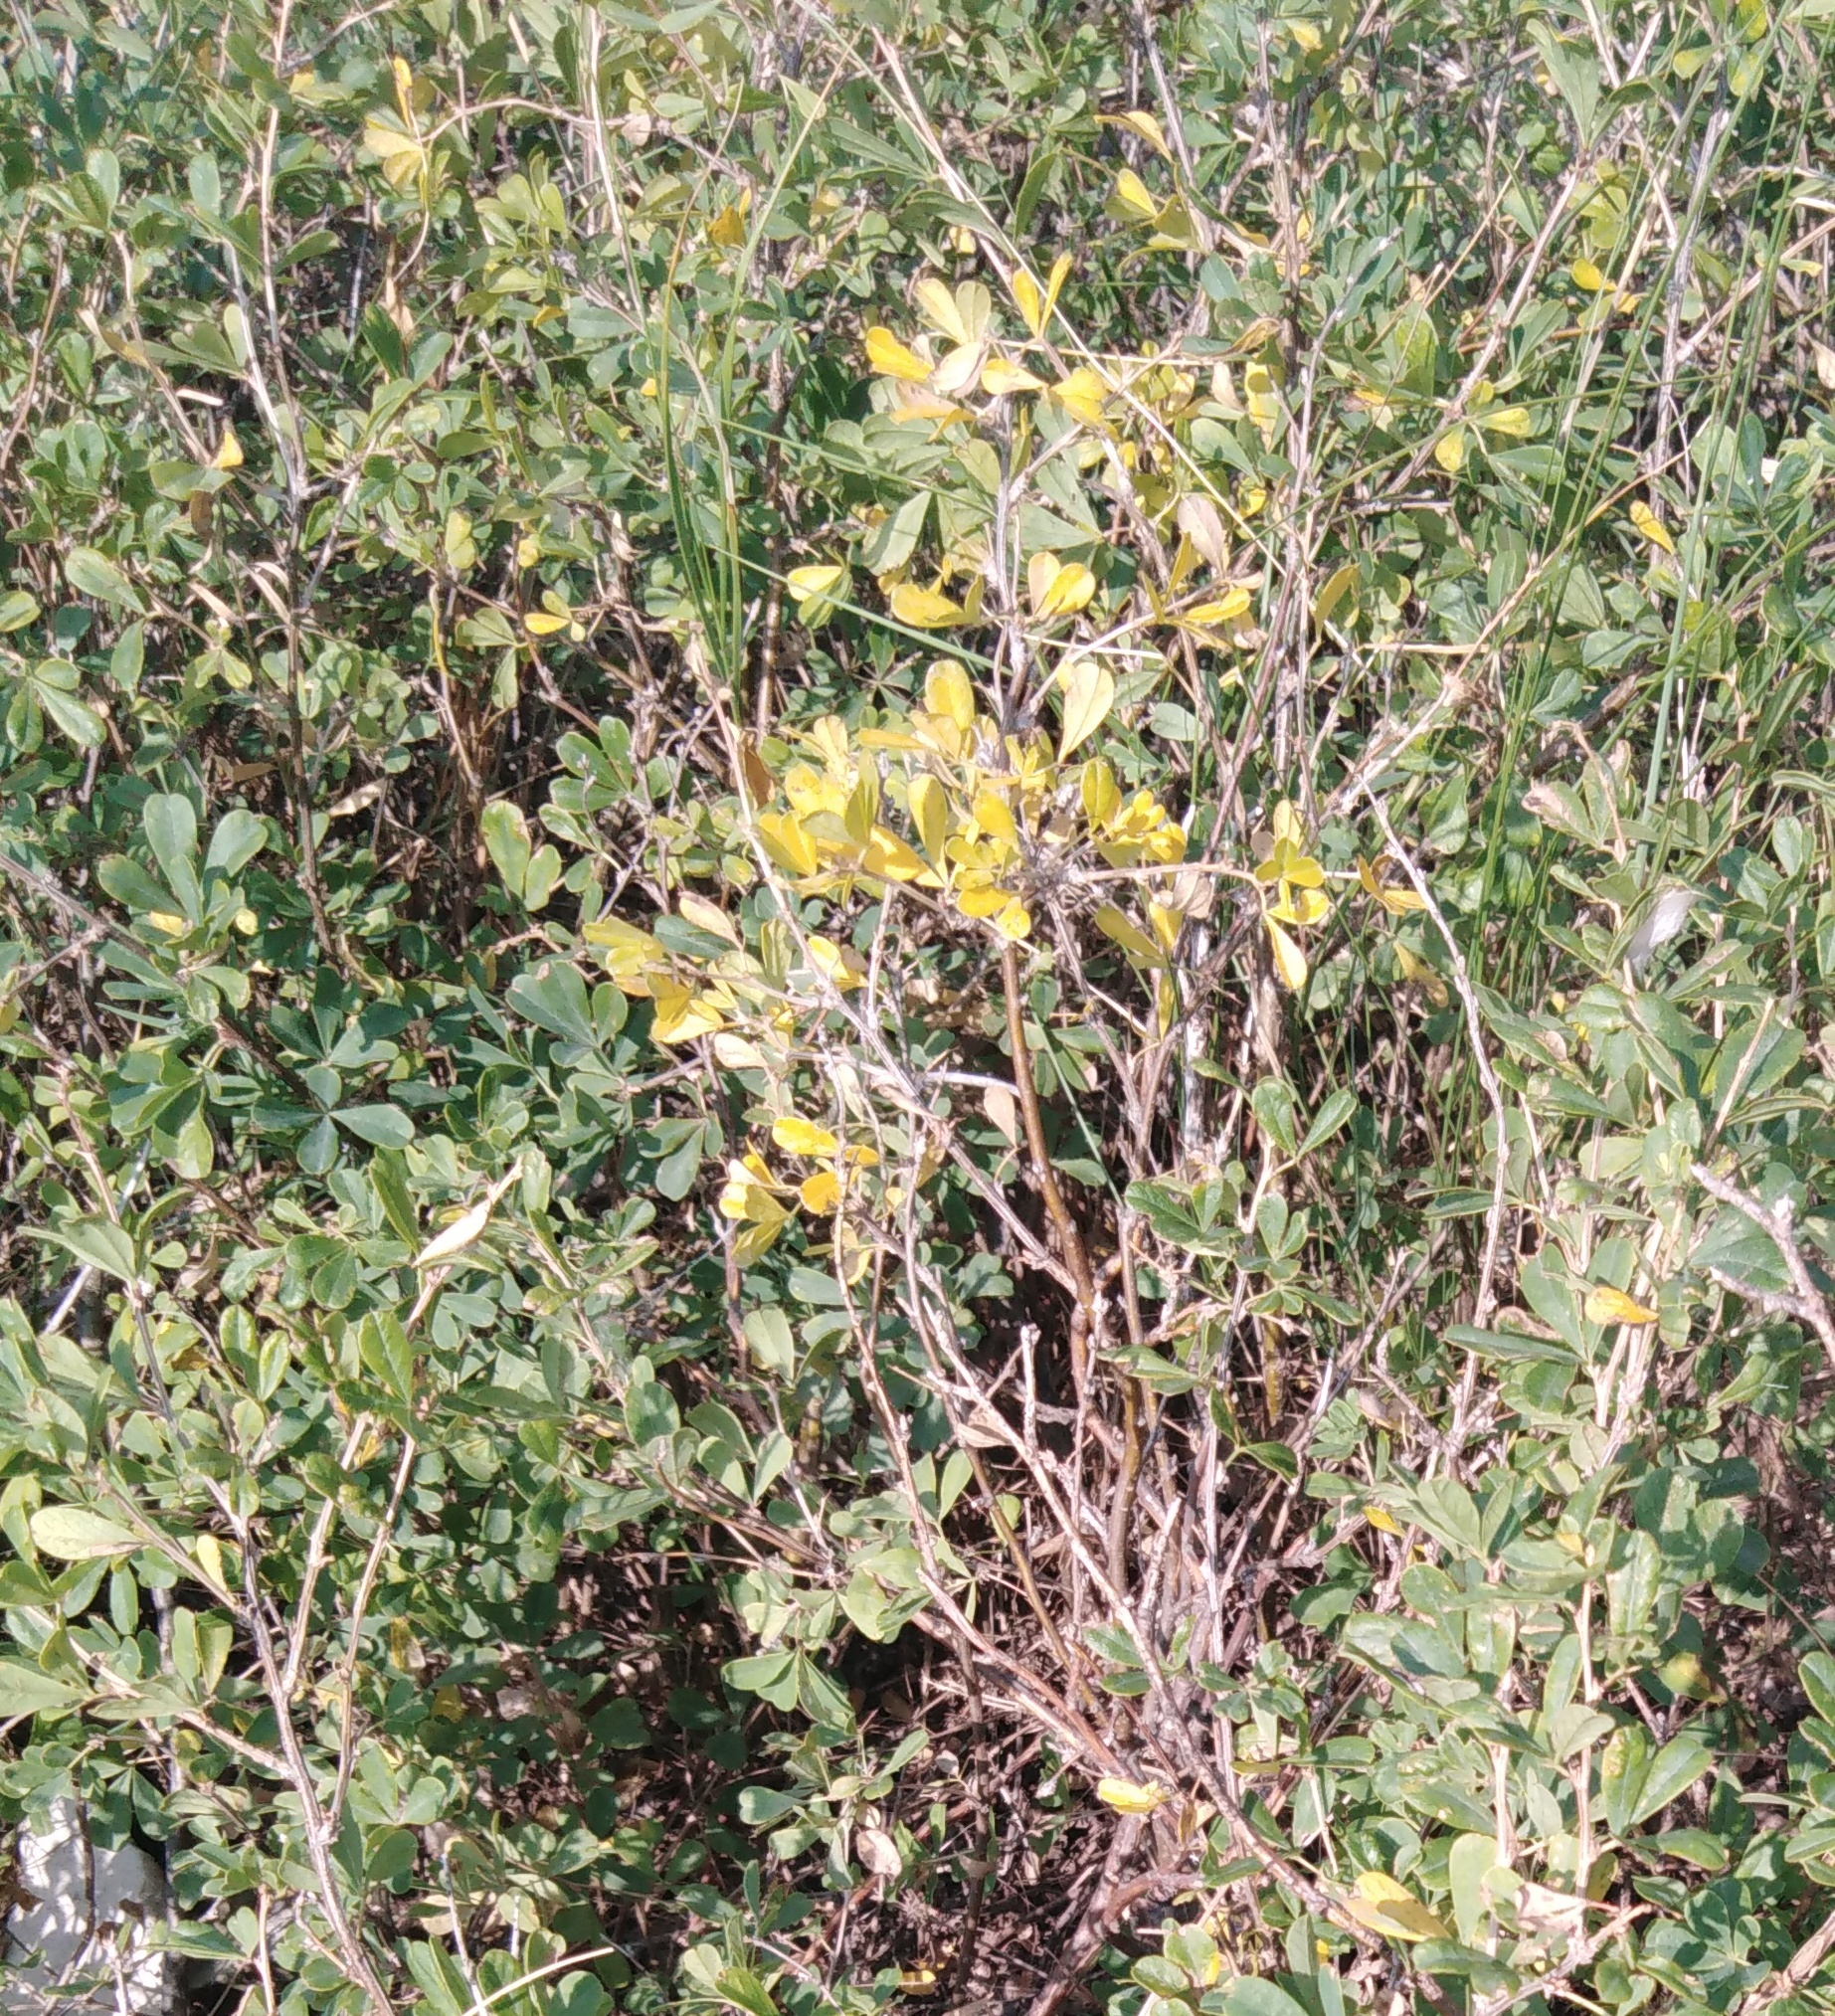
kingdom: Plantae
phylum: Tracheophyta
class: Magnoliopsida
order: Fabales
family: Fabaceae
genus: Caragana
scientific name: Caragana frutex
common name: Russian peashrub
